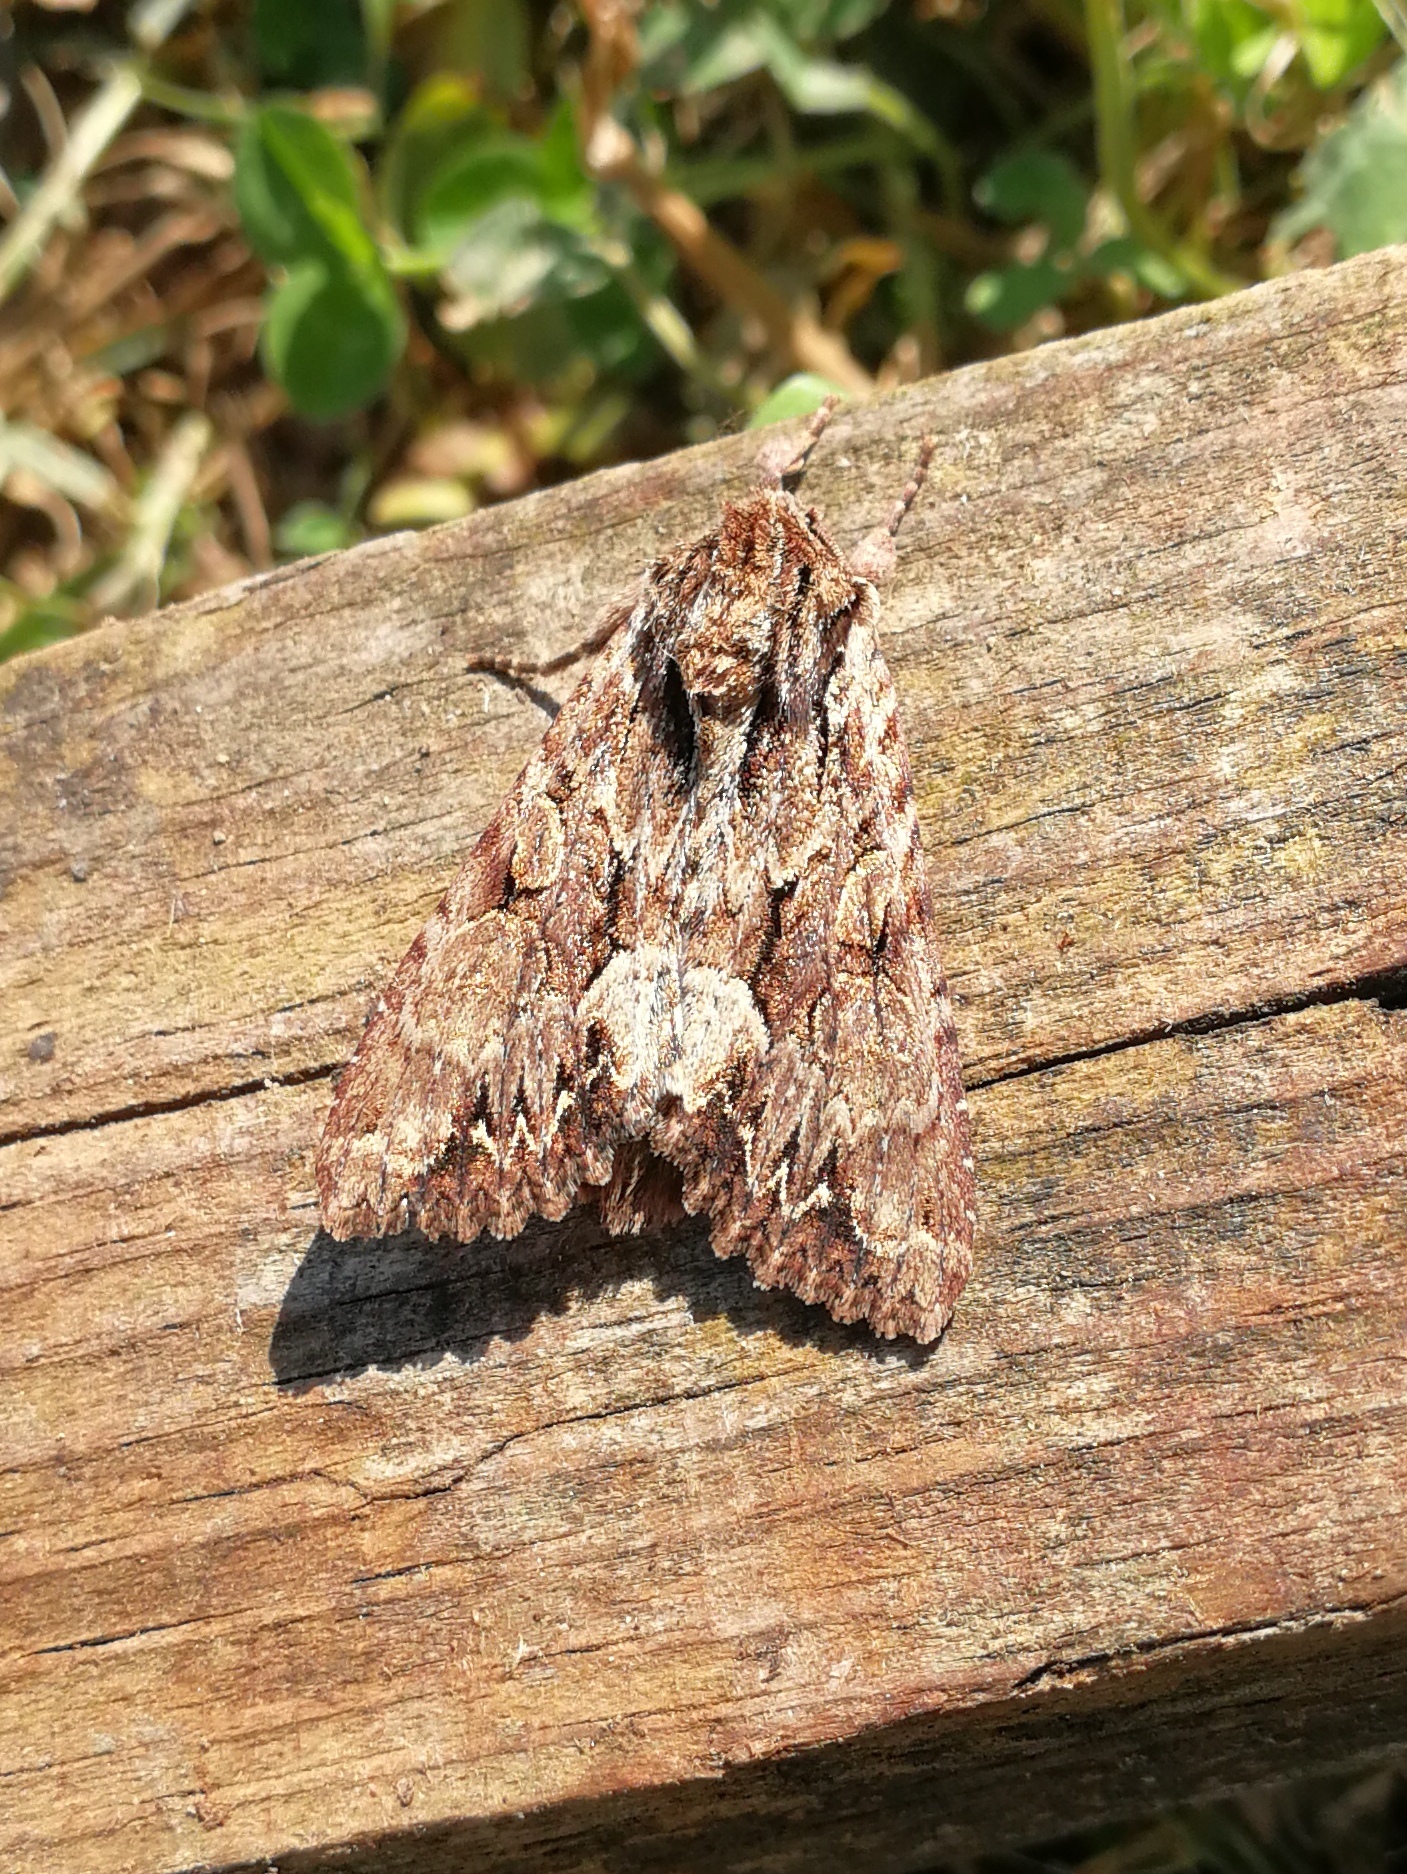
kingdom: Animalia
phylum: Arthropoda
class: Insecta
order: Lepidoptera
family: Noctuidae
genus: Apamea
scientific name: Apamea monoglypha
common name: Dark arches
